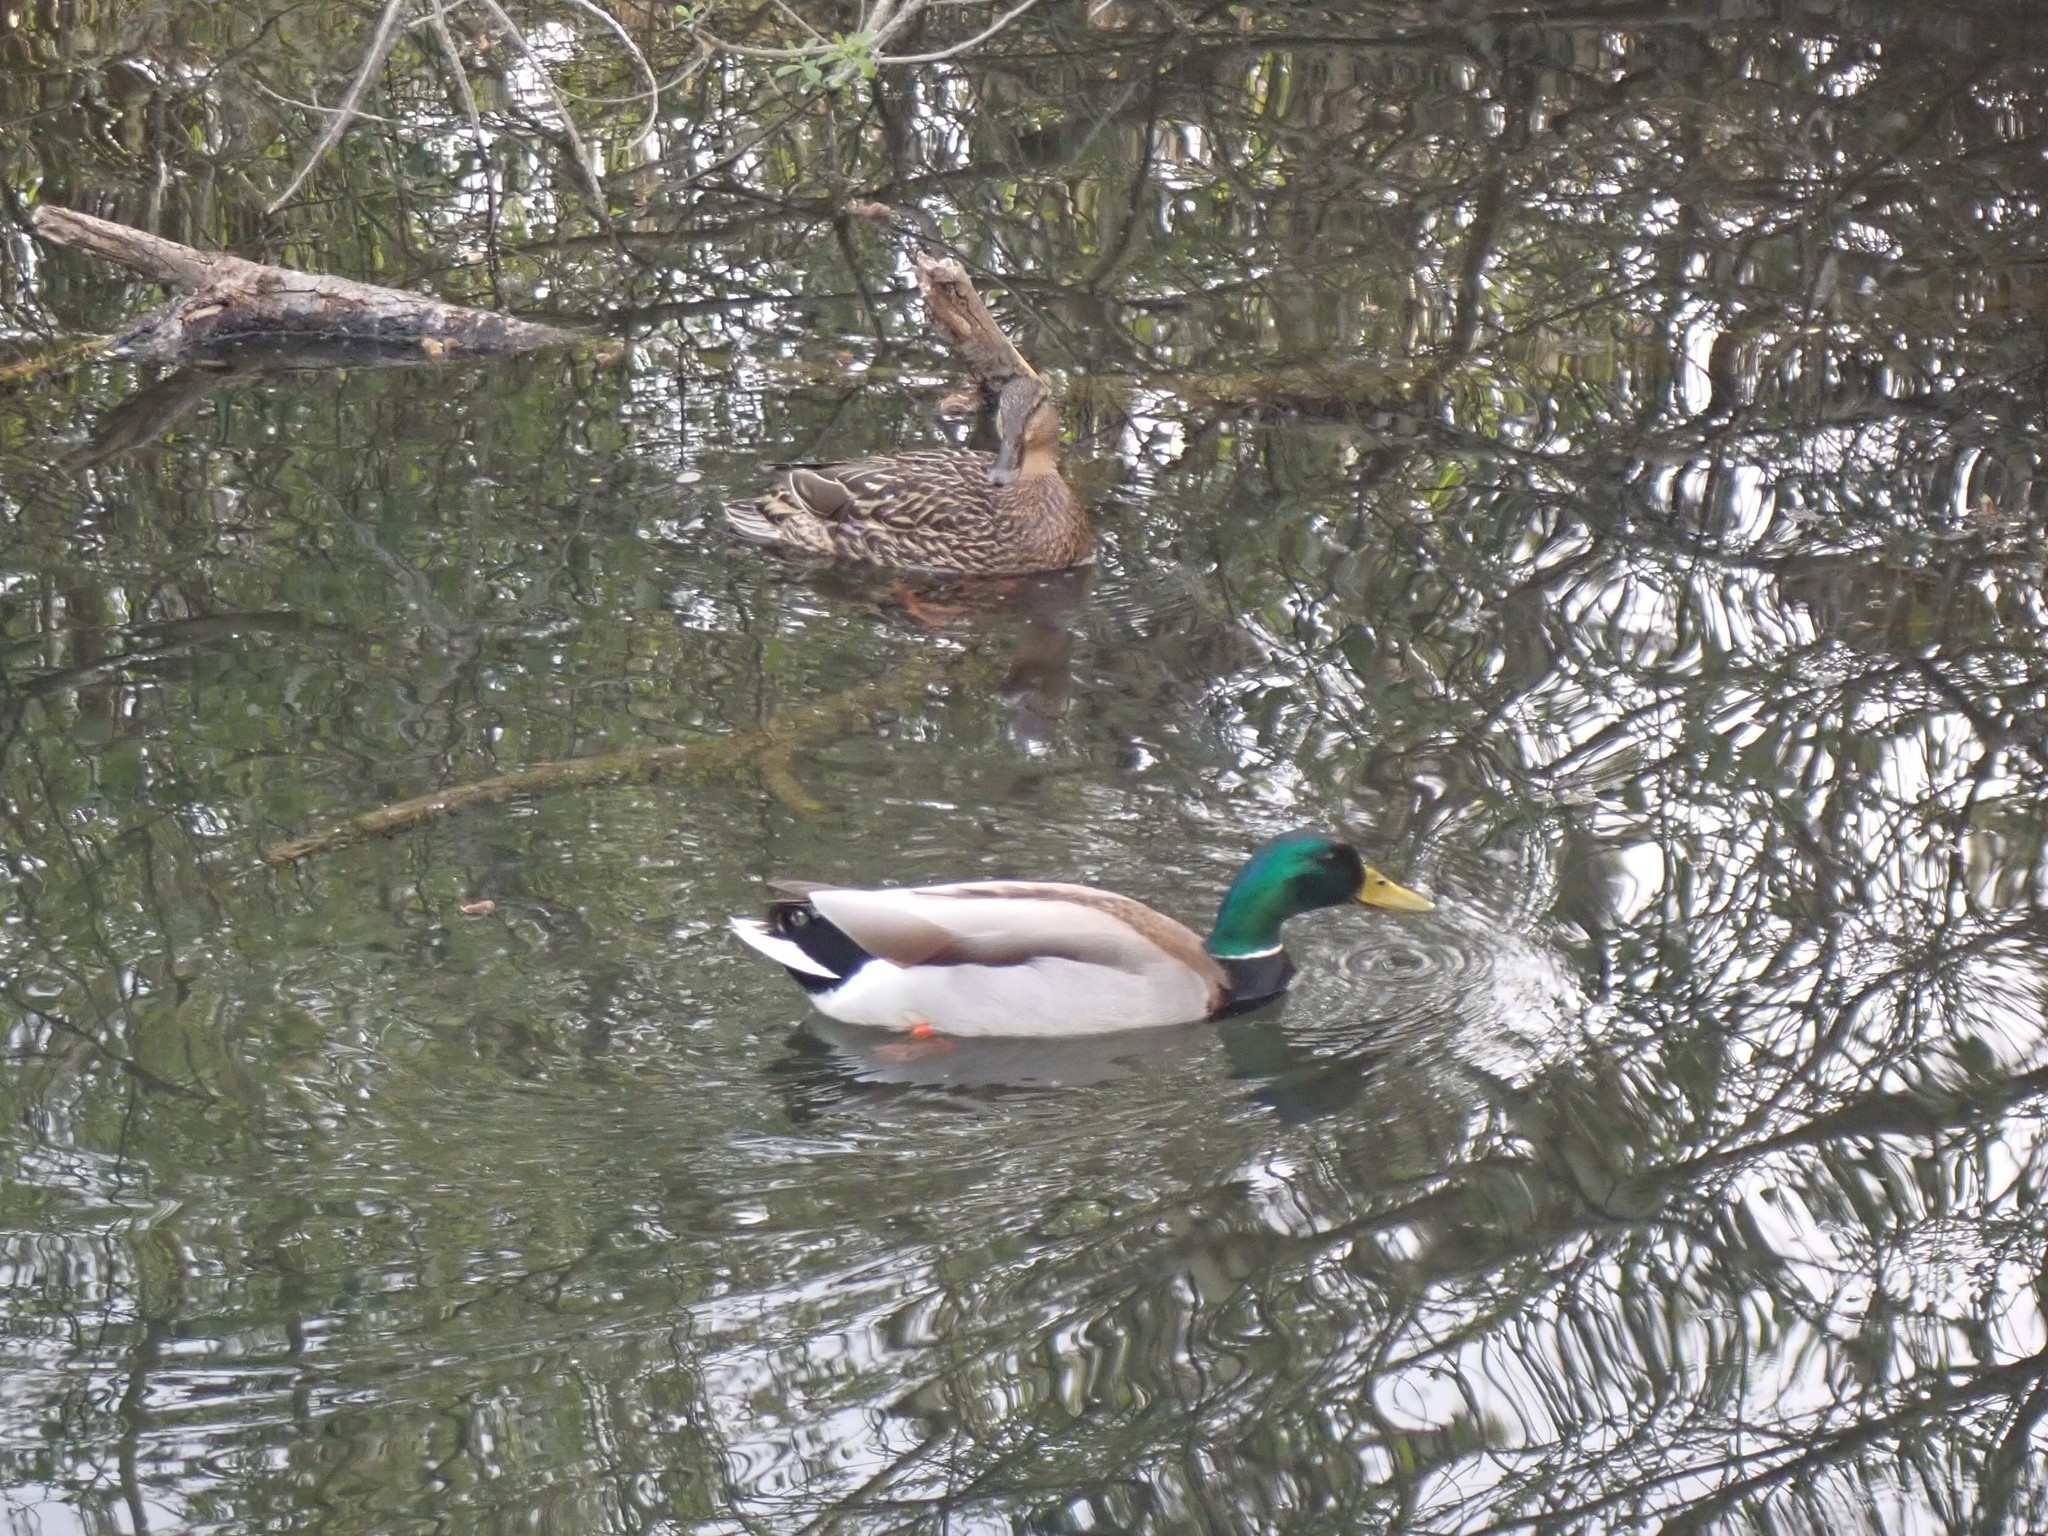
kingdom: Animalia
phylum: Chordata
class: Aves
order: Anseriformes
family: Anatidae
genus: Anas
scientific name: Anas platyrhynchos
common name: Mallard
